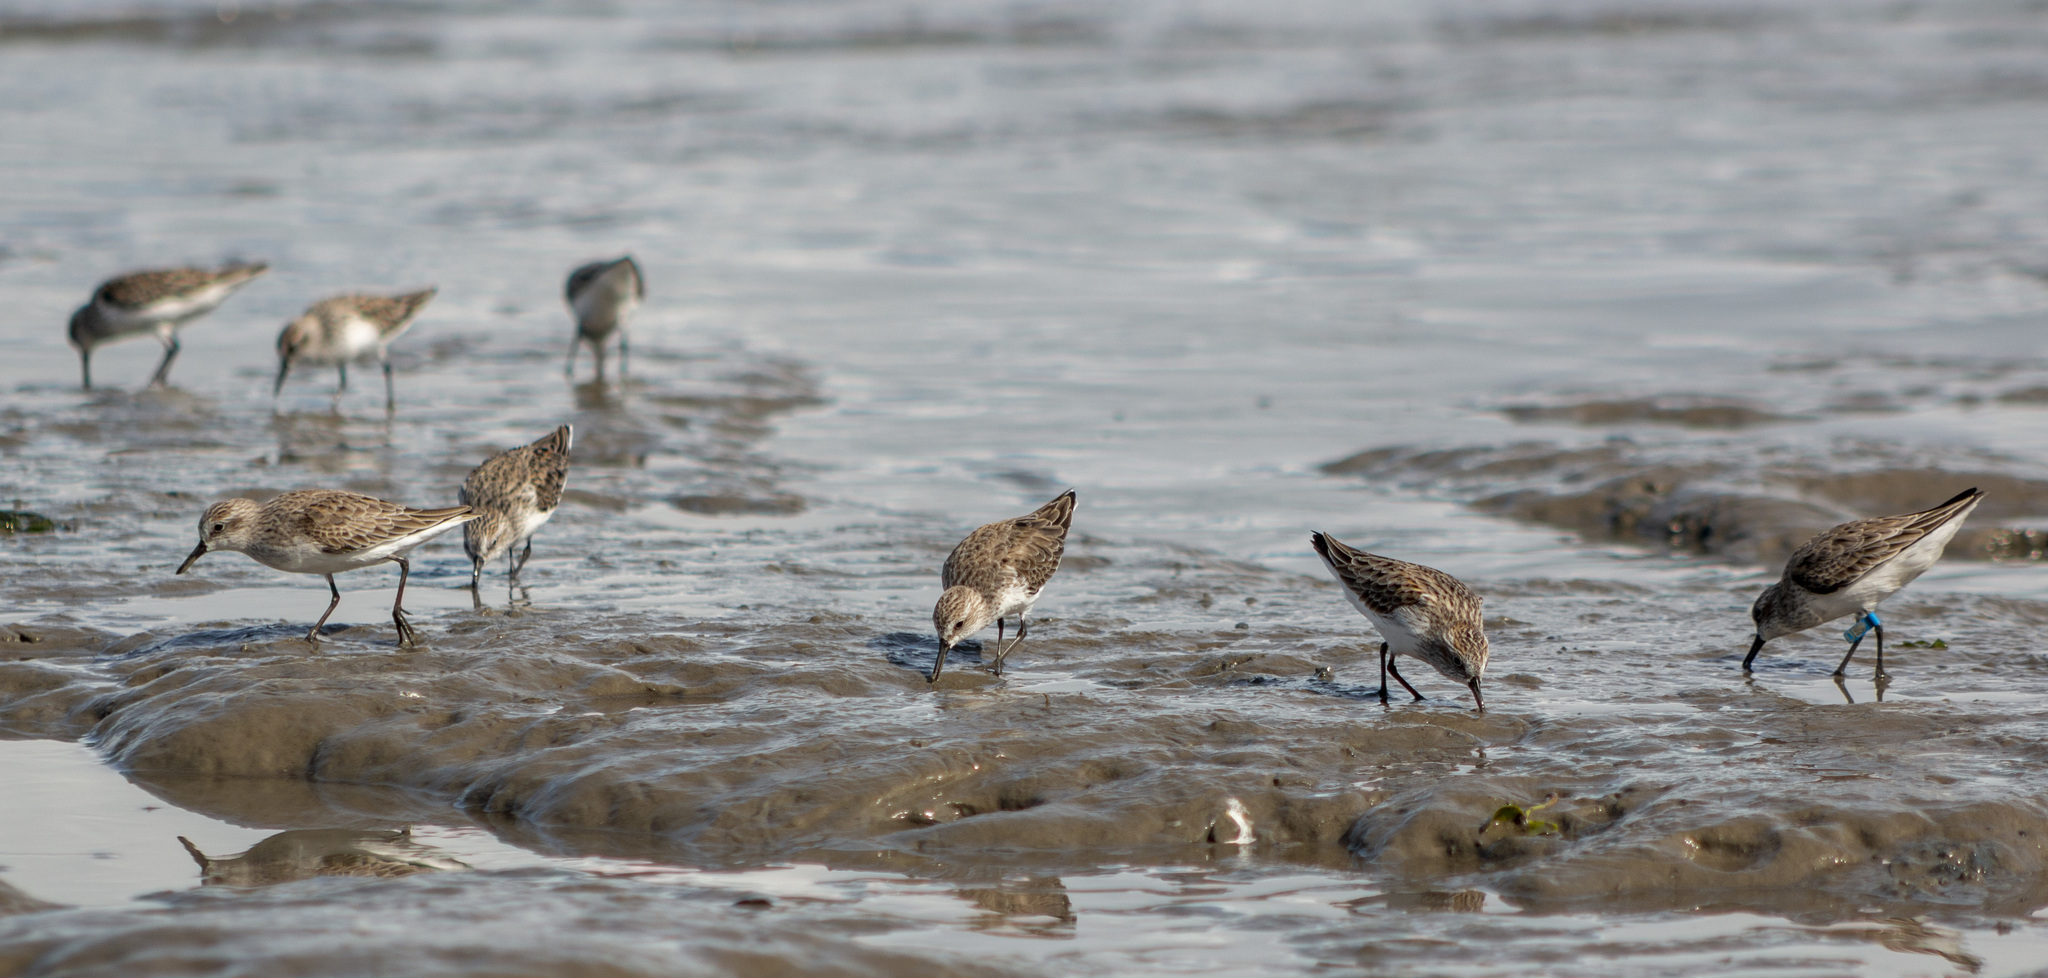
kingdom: Animalia
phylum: Chordata
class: Aves
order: Charadriiformes
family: Scolopacidae
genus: Calidris
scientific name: Calidris pusilla
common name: Semipalmated sandpiper
